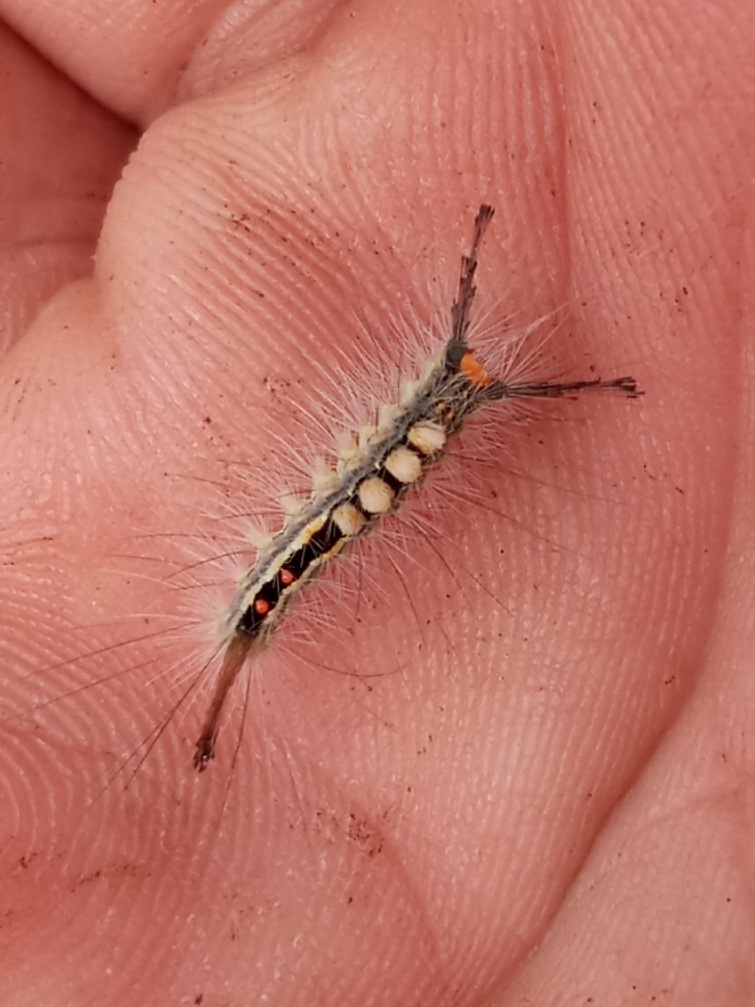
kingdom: Animalia
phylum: Arthropoda
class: Insecta
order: Lepidoptera
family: Erebidae
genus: Orgyia
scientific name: Orgyia leucostigma
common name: White-marked tussock moth
